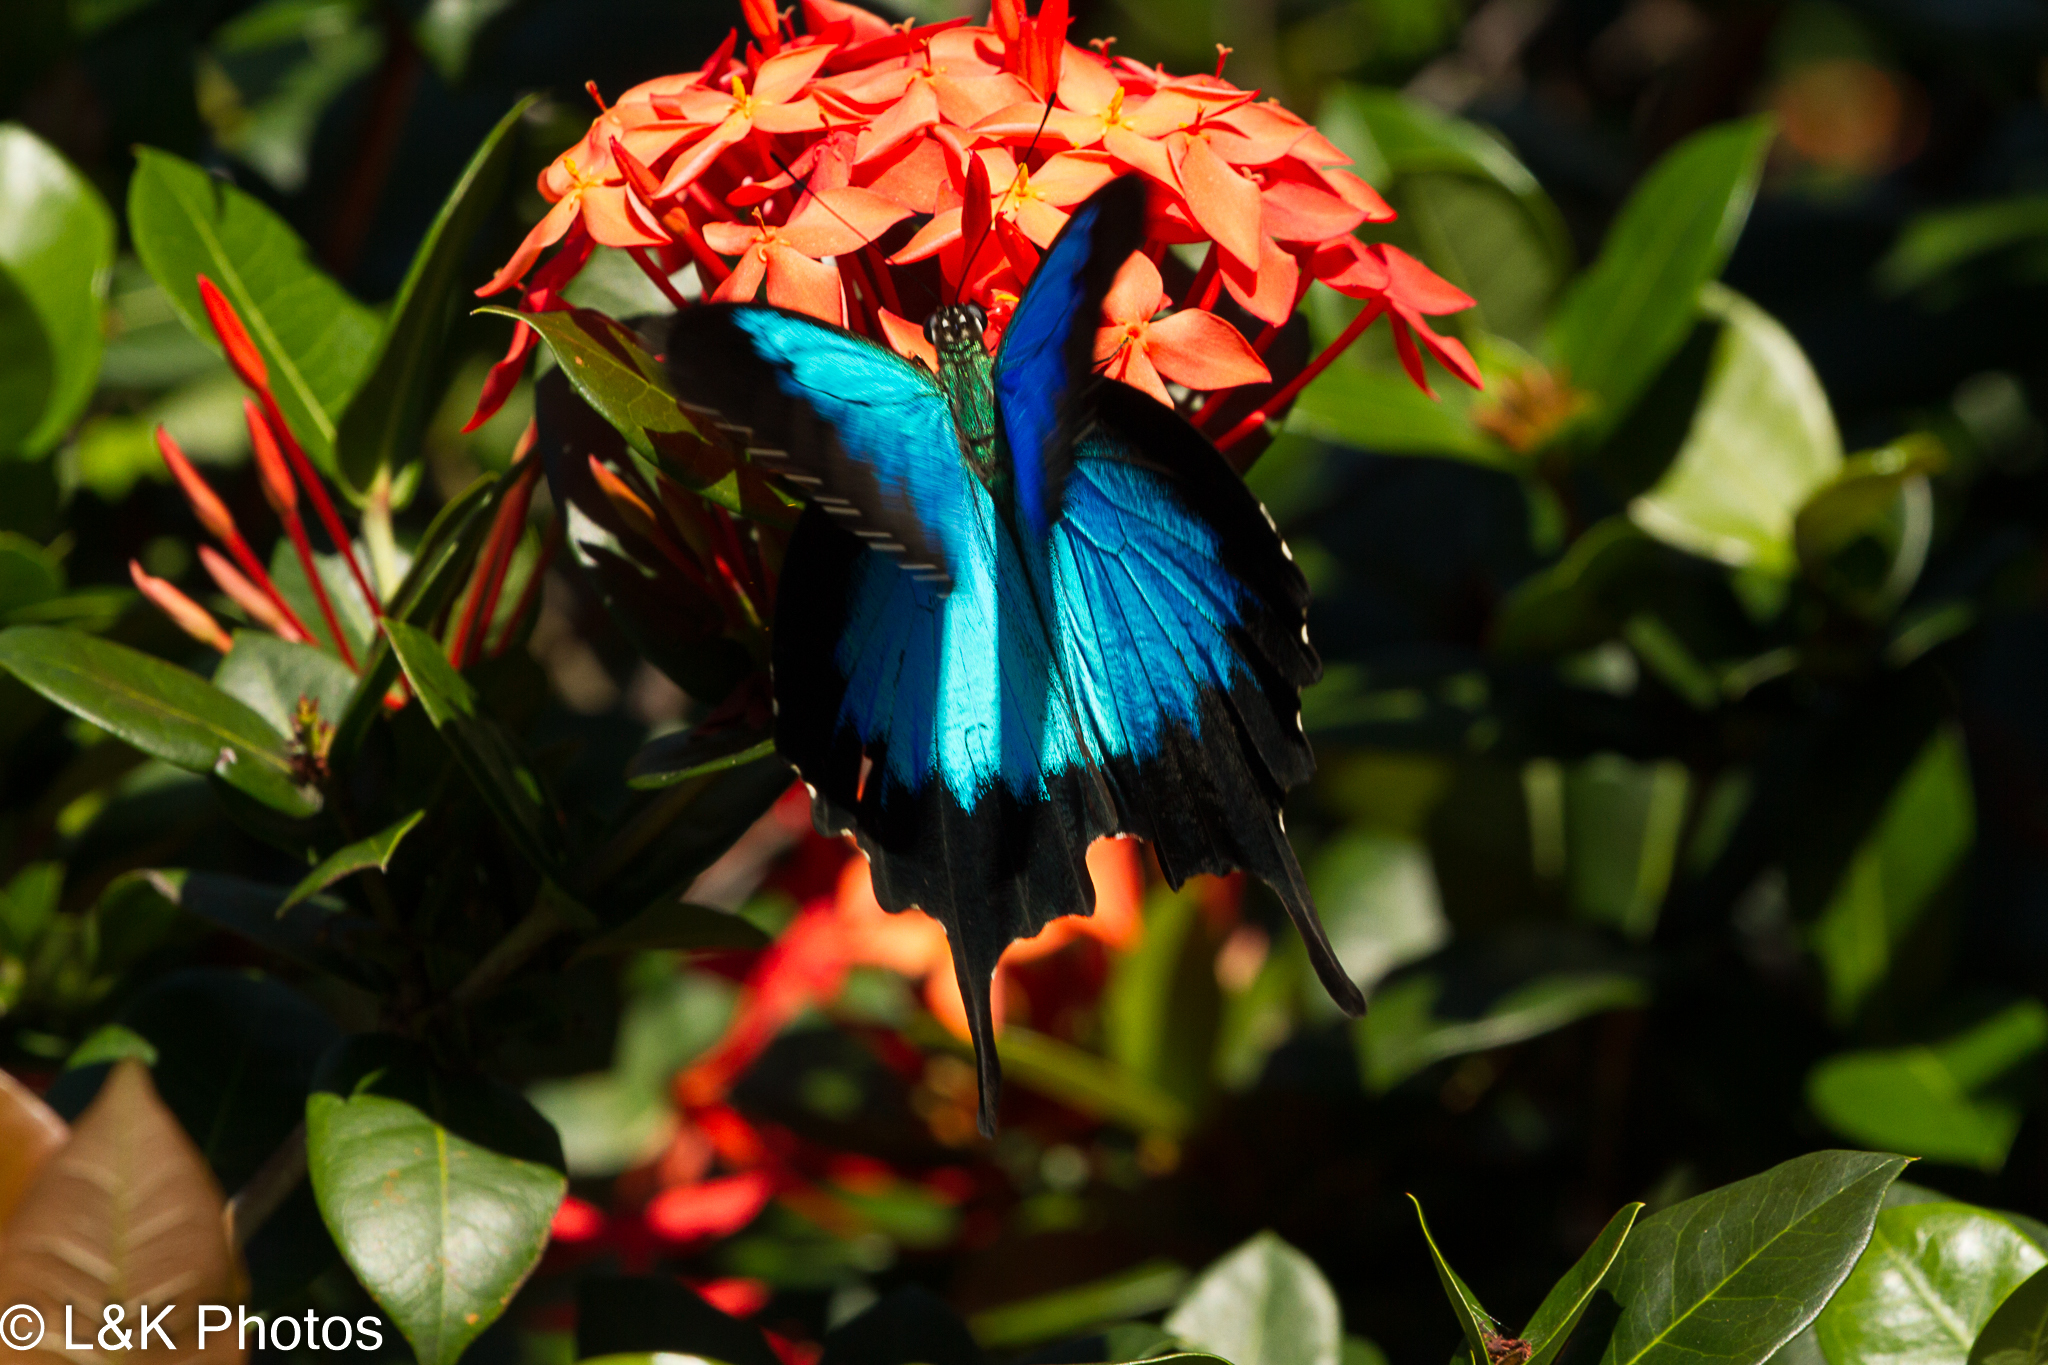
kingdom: Animalia
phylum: Arthropoda
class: Insecta
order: Lepidoptera
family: Papilionidae
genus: Papilio
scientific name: Papilio ulysses
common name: Blue emperor
